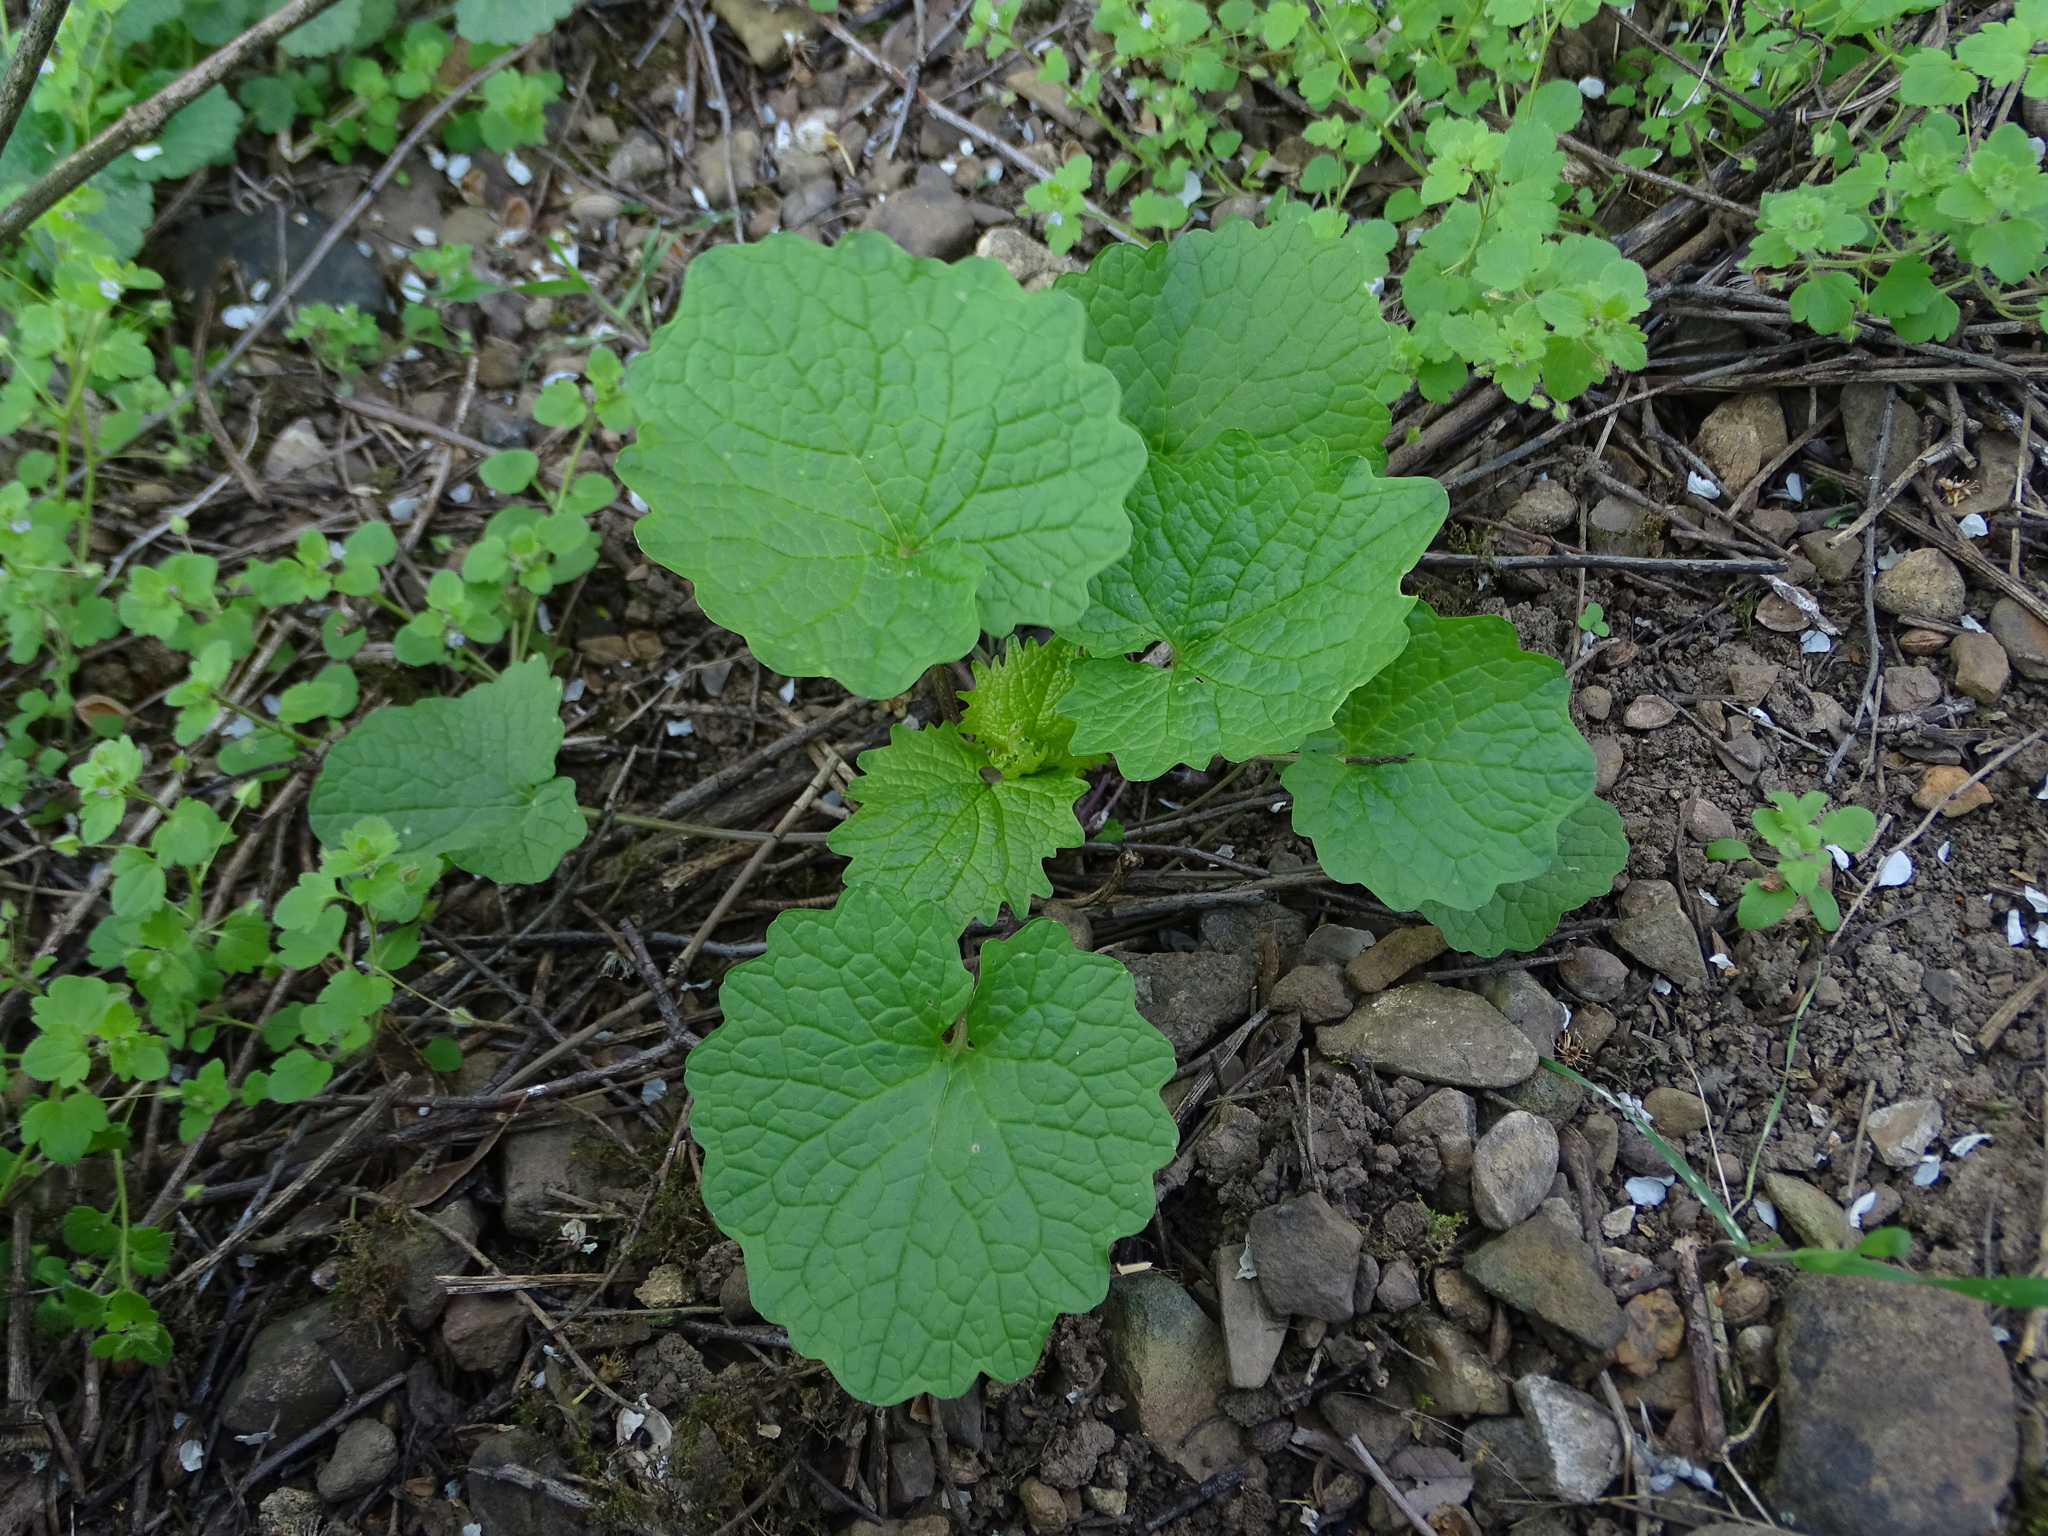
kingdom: Plantae
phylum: Tracheophyta
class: Magnoliopsida
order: Brassicales
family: Brassicaceae
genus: Alliaria
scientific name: Alliaria petiolata
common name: Garlic mustard
